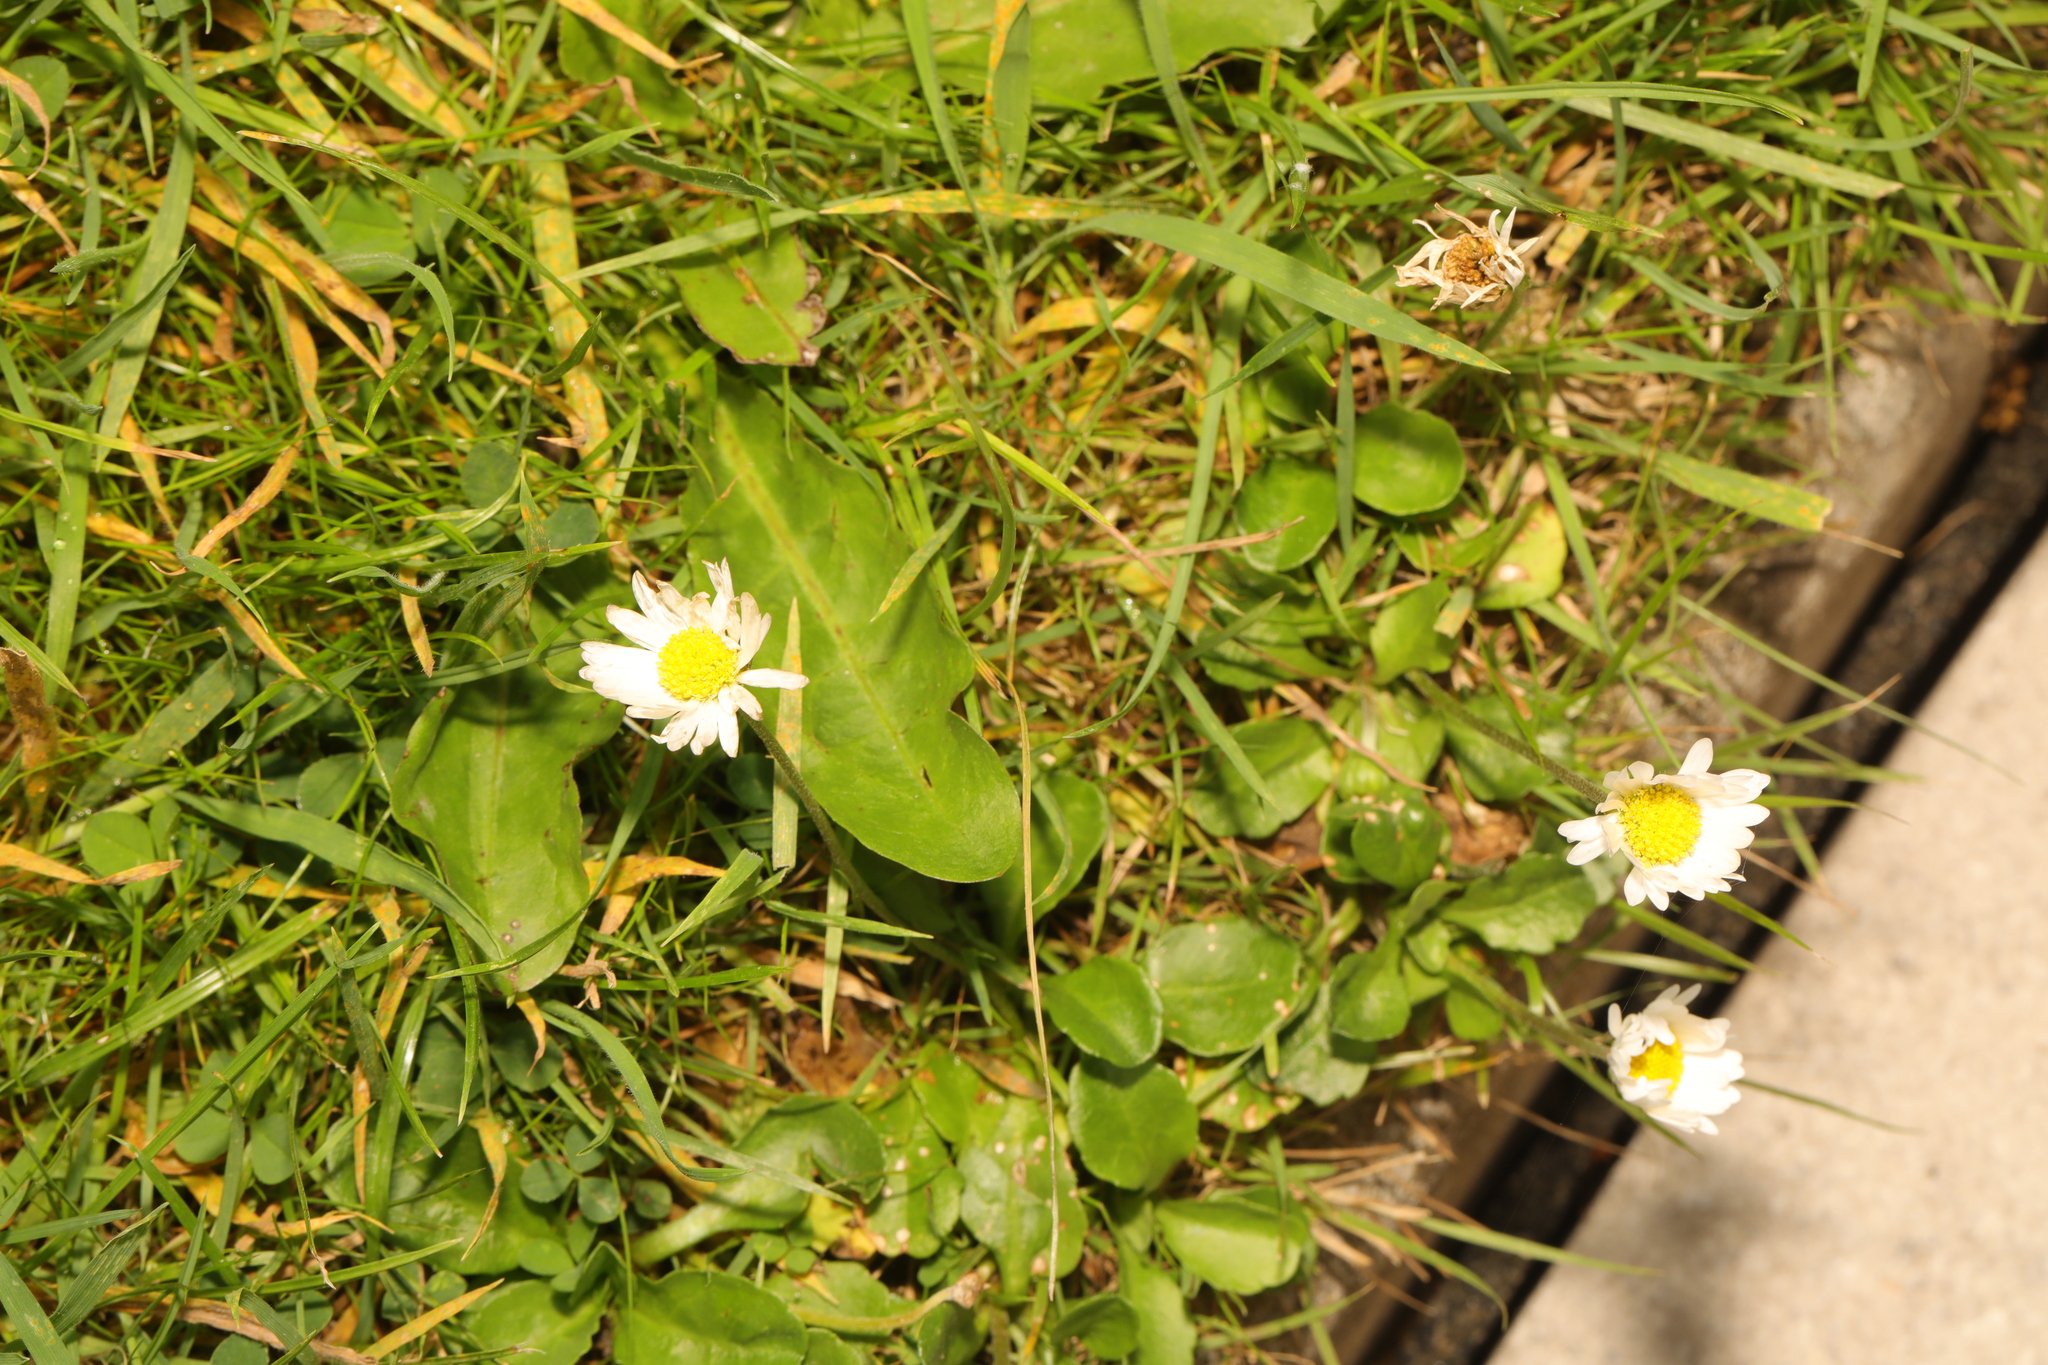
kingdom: Plantae
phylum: Tracheophyta
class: Magnoliopsida
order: Asterales
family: Asteraceae
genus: Bellis
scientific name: Bellis perennis
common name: Lawndaisy
